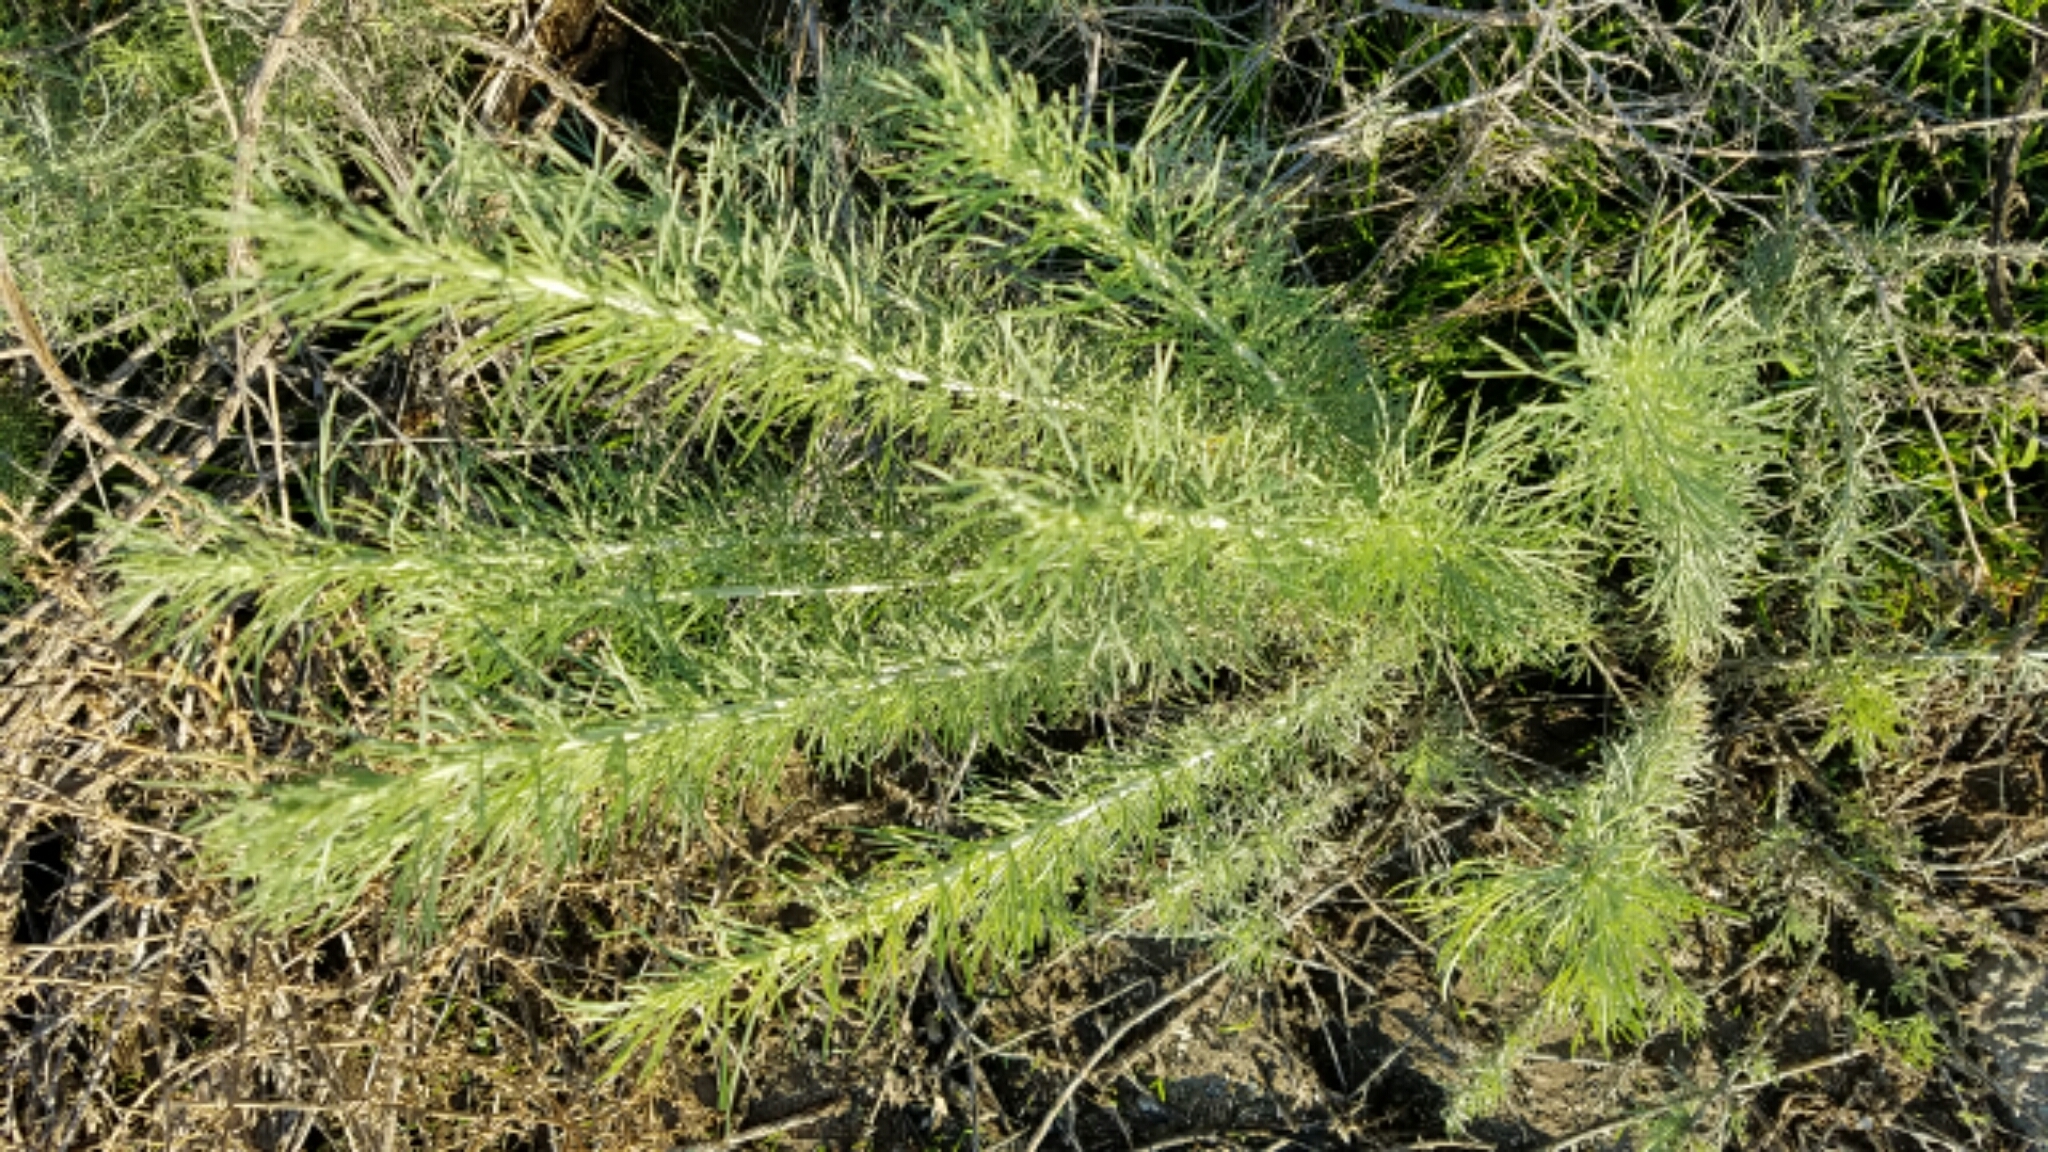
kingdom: Plantae
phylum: Tracheophyta
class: Magnoliopsida
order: Asterales
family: Asteraceae
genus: Artemisia
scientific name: Artemisia californica
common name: California sagebrush
